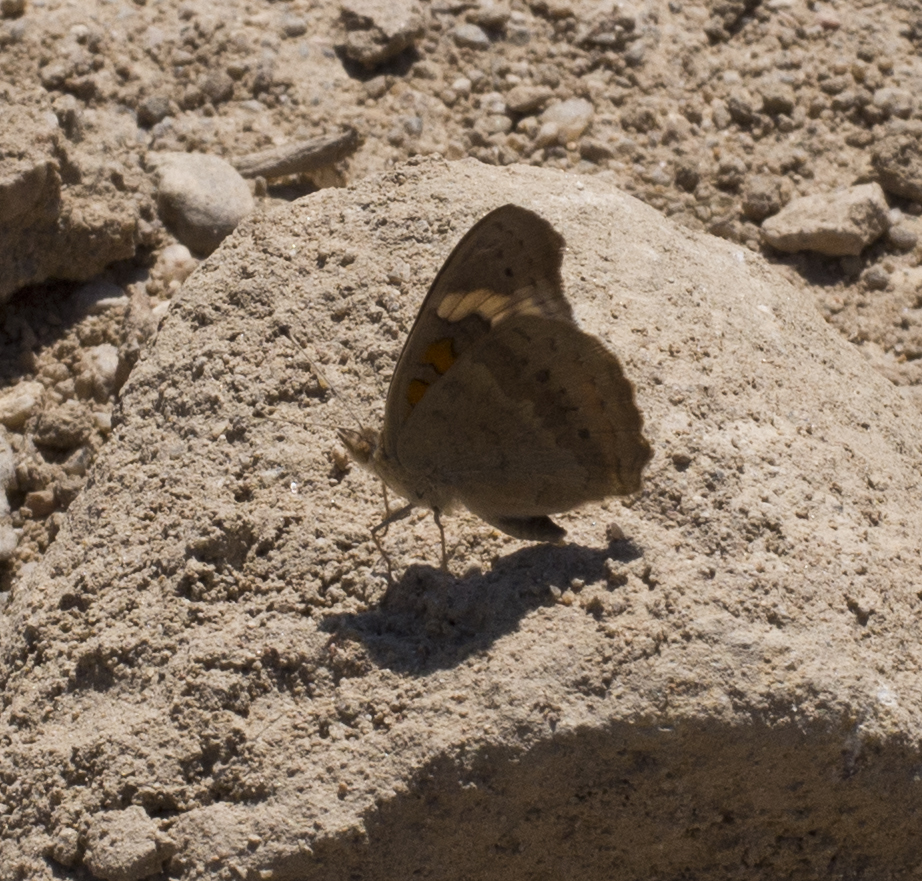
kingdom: Animalia
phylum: Arthropoda
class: Insecta
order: Lepidoptera
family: Nymphalidae
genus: Junonia
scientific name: Junonia grisea
